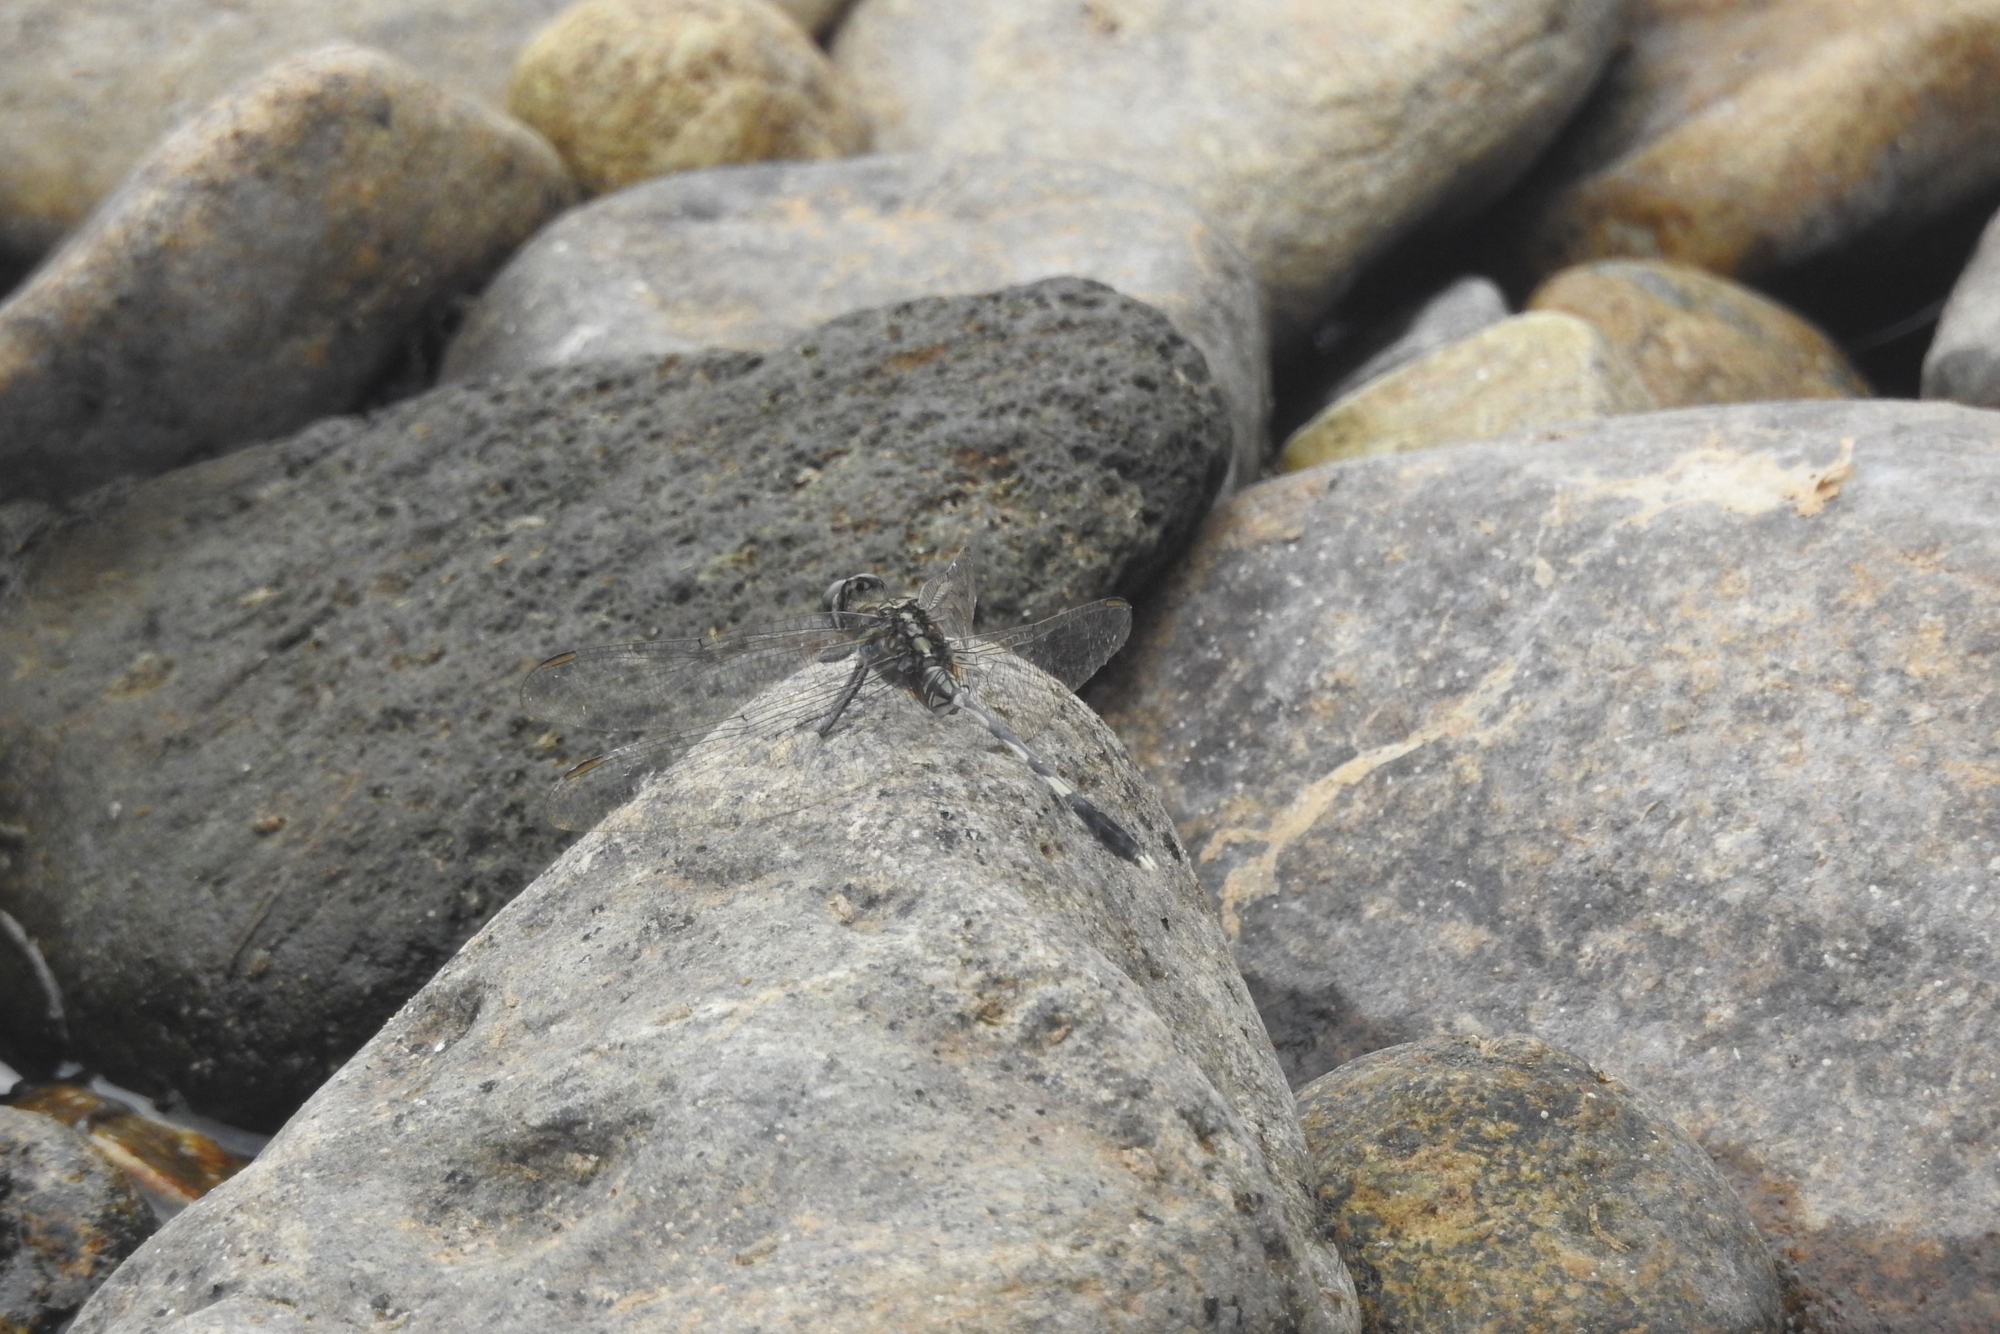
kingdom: Animalia
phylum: Arthropoda
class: Insecta
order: Odonata
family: Libellulidae
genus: Orthetrum
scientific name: Orthetrum sabina
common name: Slender skimmer
